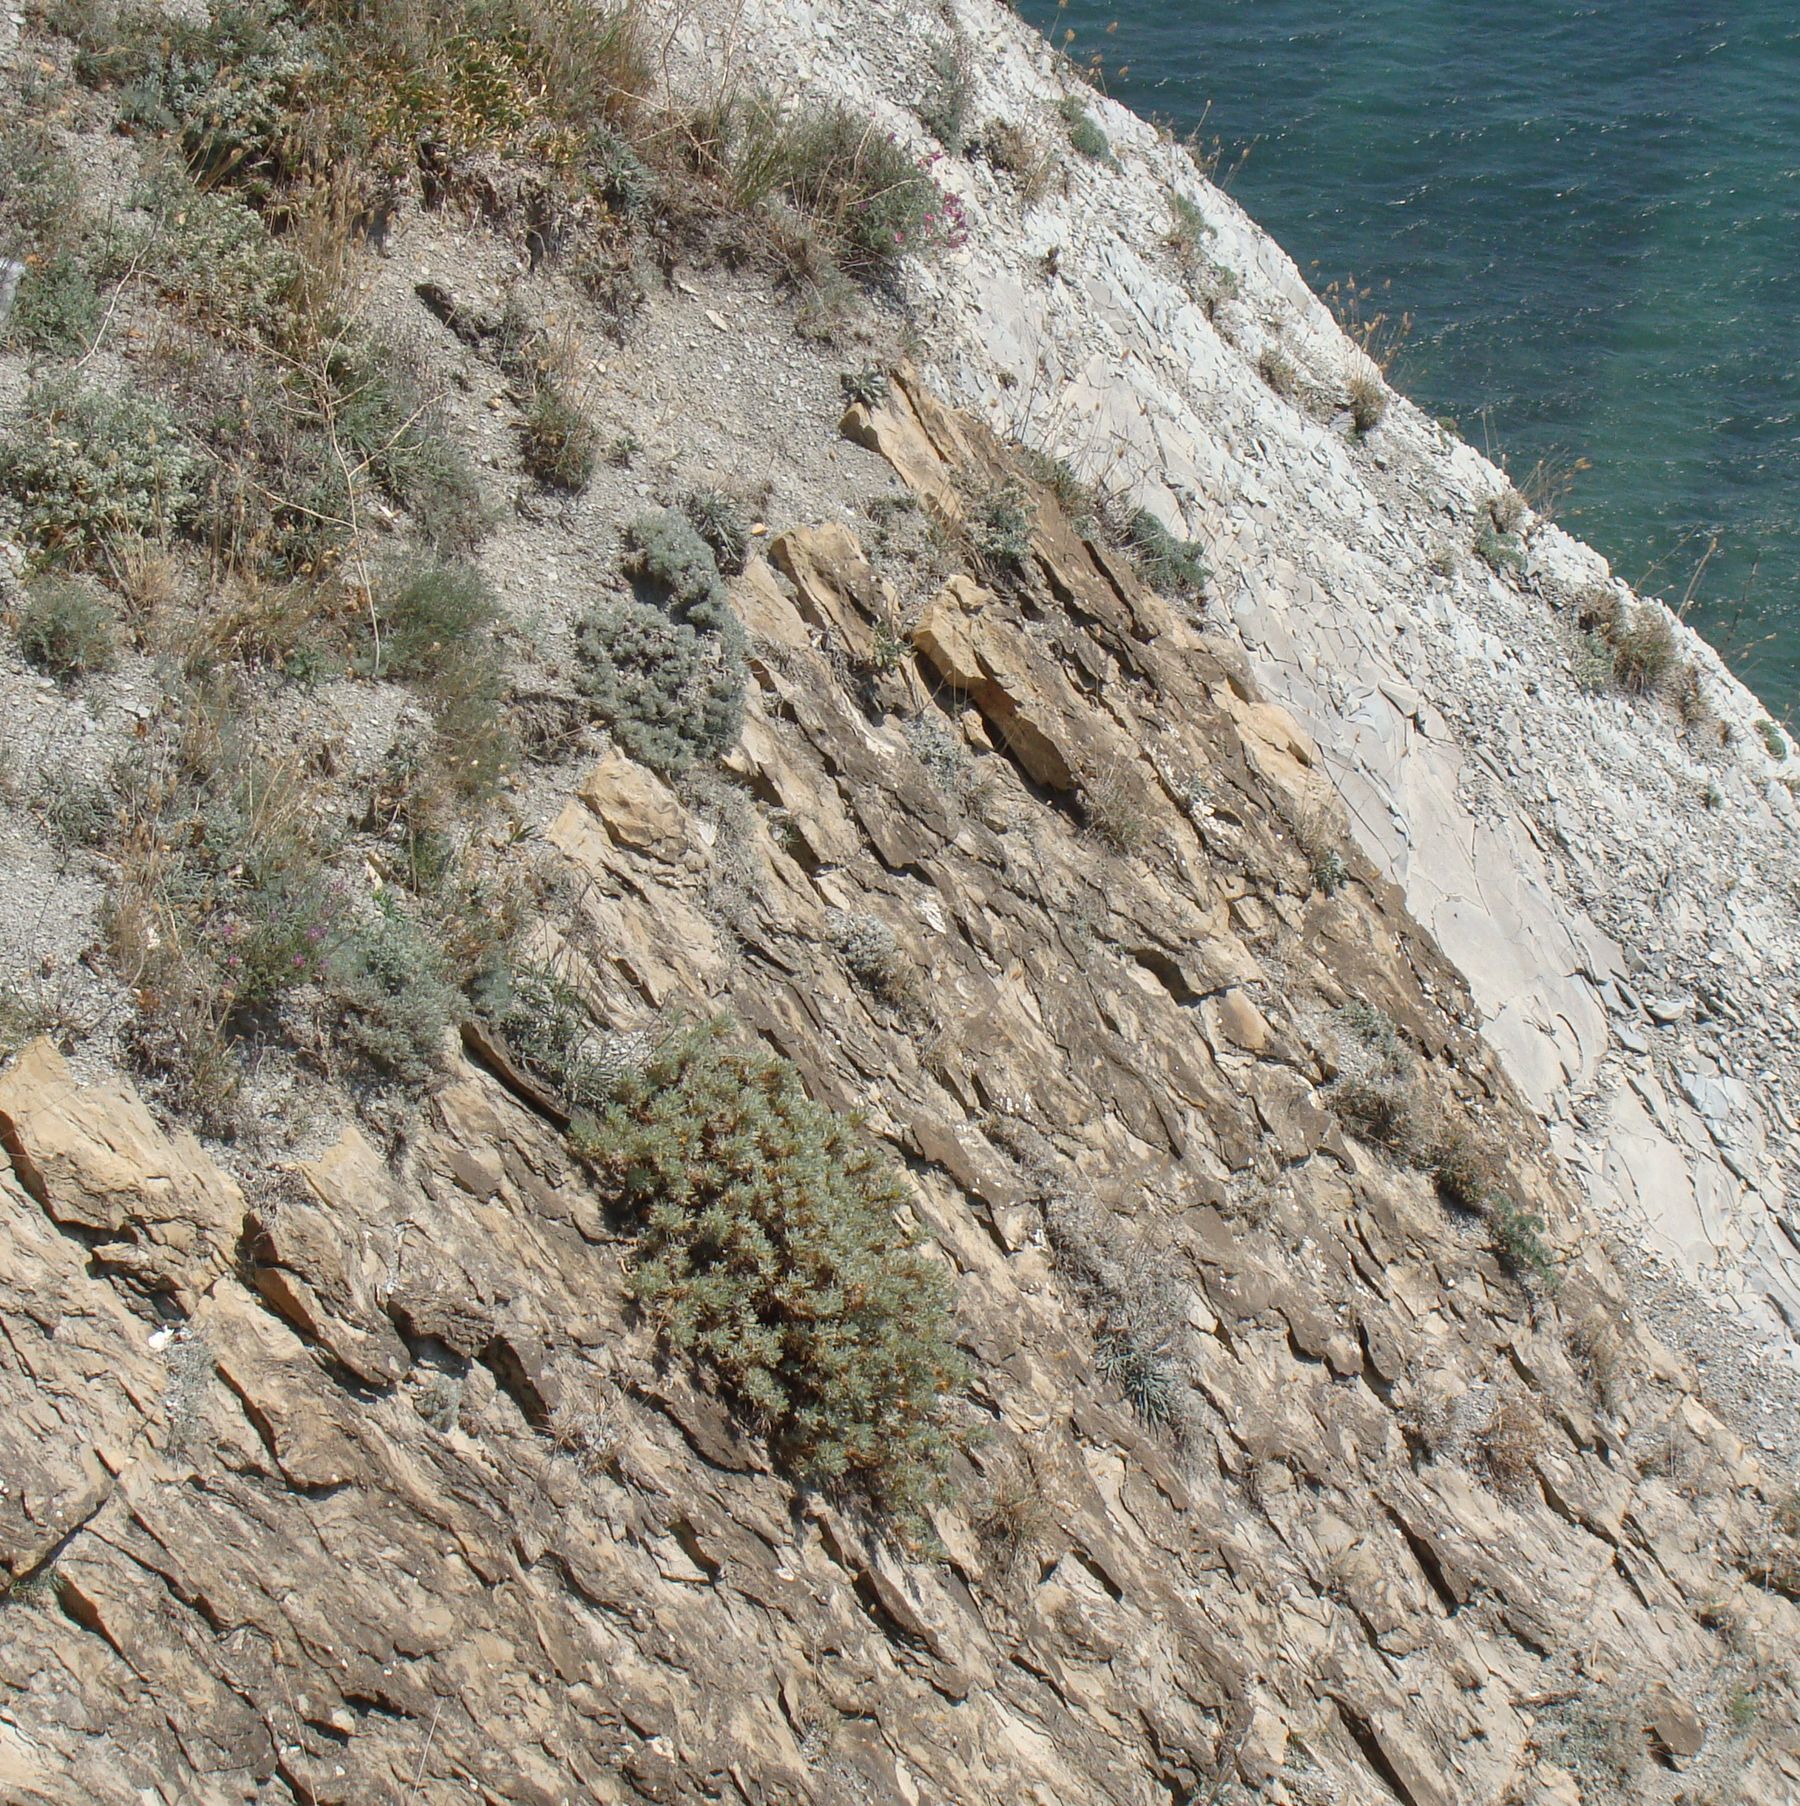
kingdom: Plantae
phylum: Tracheophyta
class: Magnoliopsida
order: Fabales
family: Fabaceae
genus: Astragalus
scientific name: Astragalus arnacanthoides
